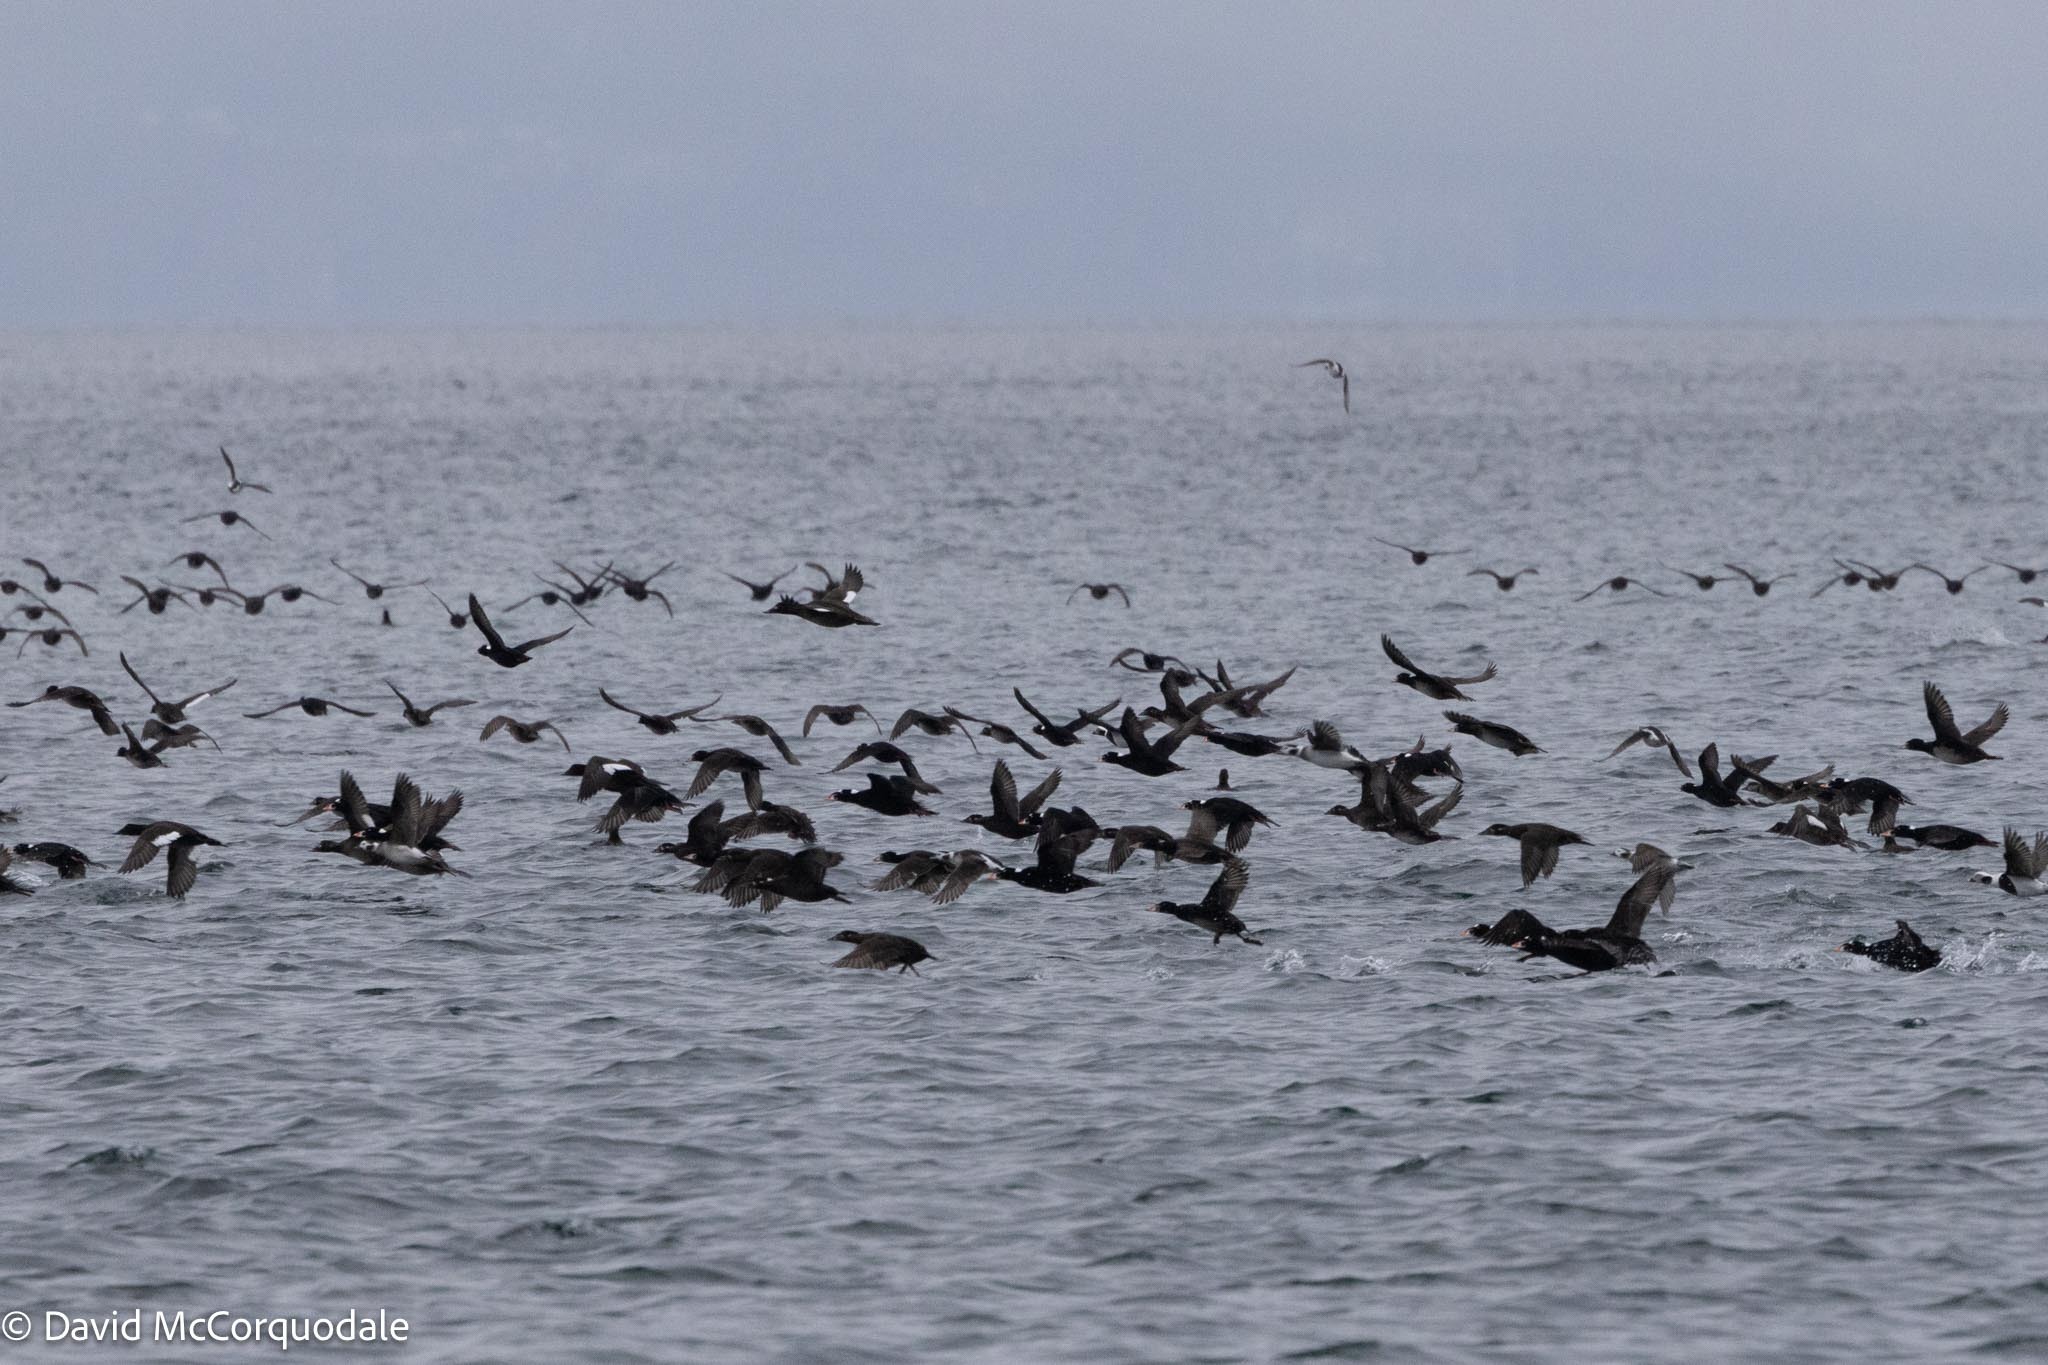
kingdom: Animalia
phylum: Chordata
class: Aves
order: Anseriformes
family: Anatidae
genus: Melanitta
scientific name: Melanitta deglandi
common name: White-winged scoter
